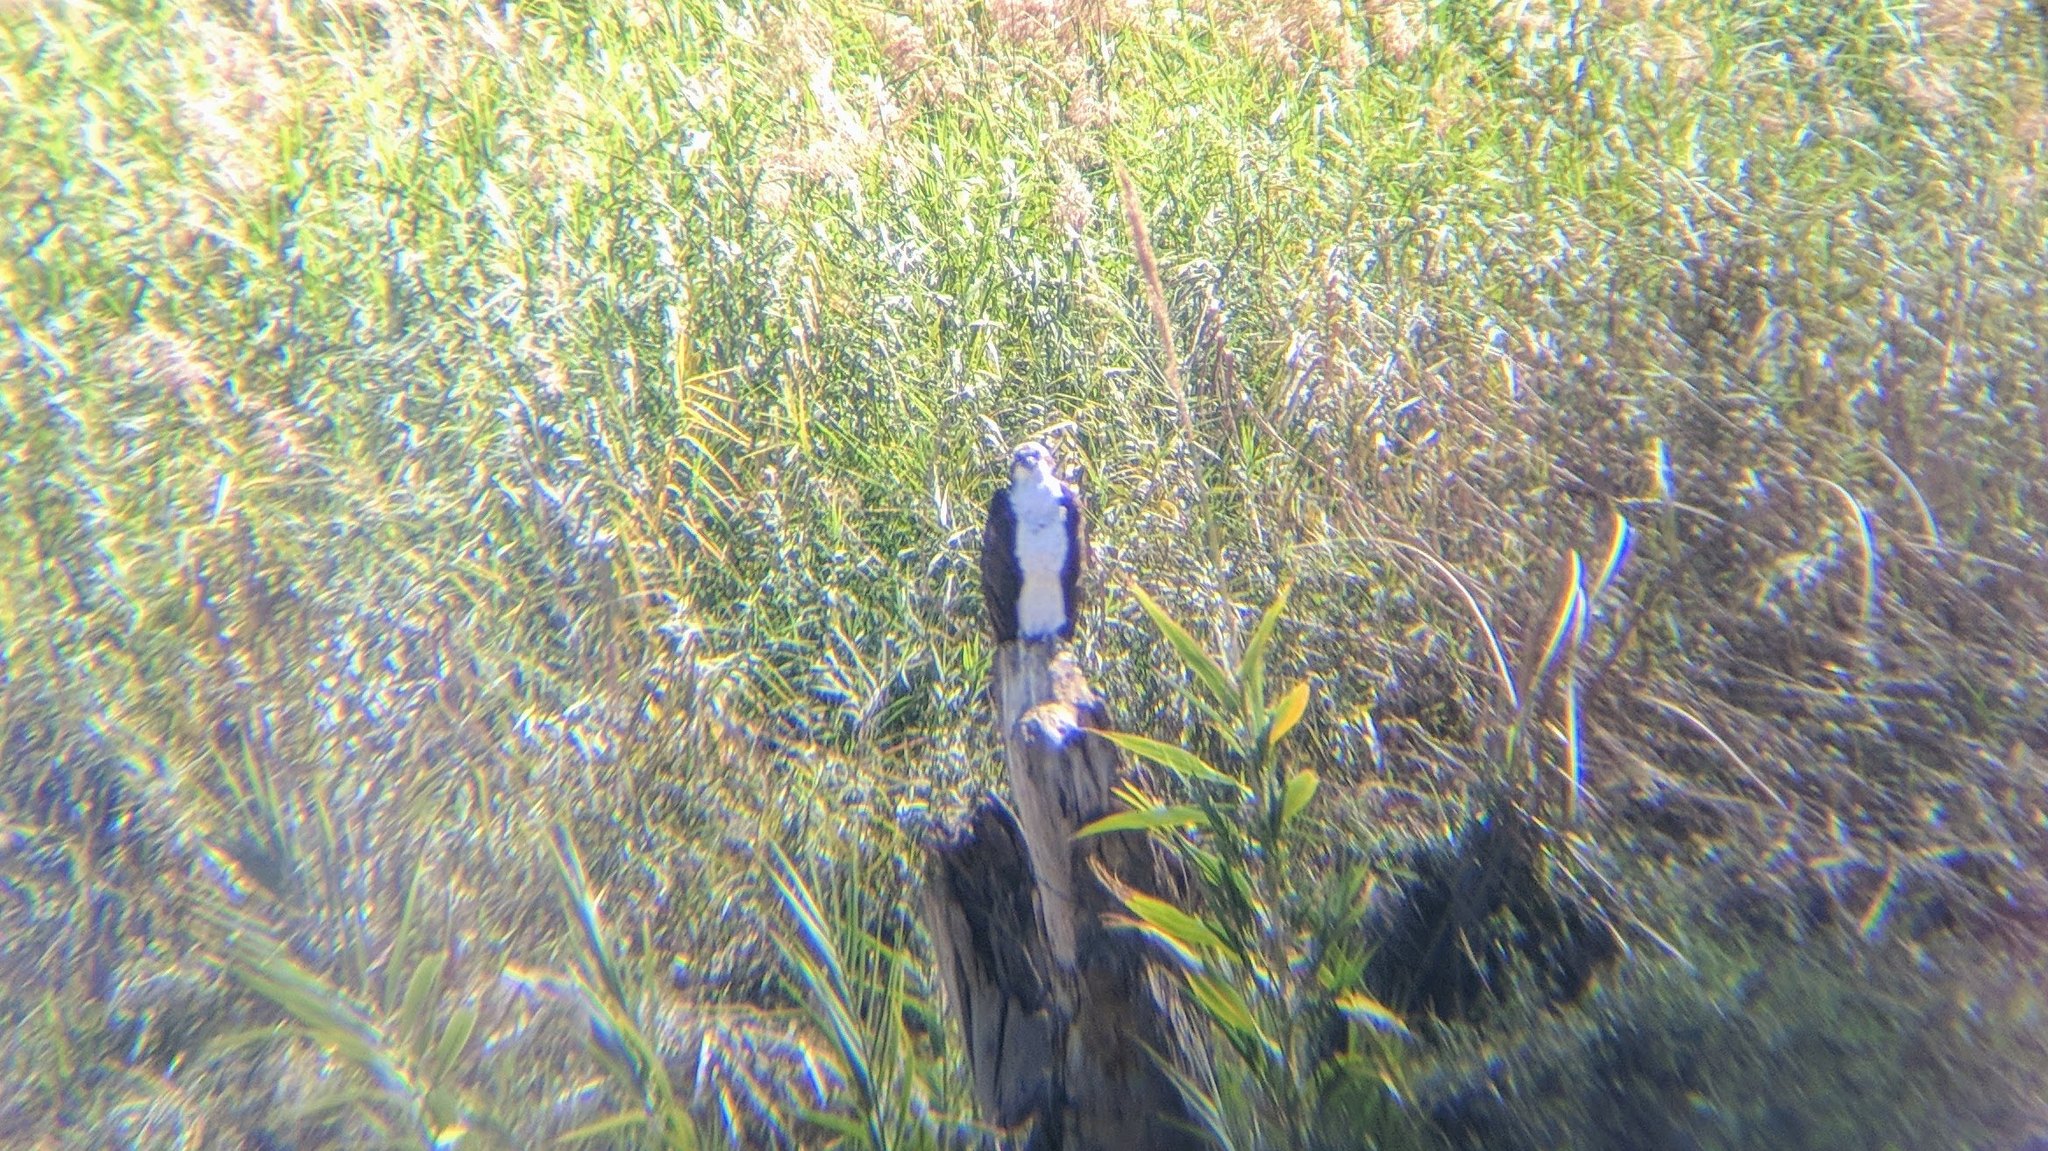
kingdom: Animalia
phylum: Chordata
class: Aves
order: Accipitriformes
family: Pandionidae
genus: Pandion
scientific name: Pandion haliaetus
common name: Osprey
